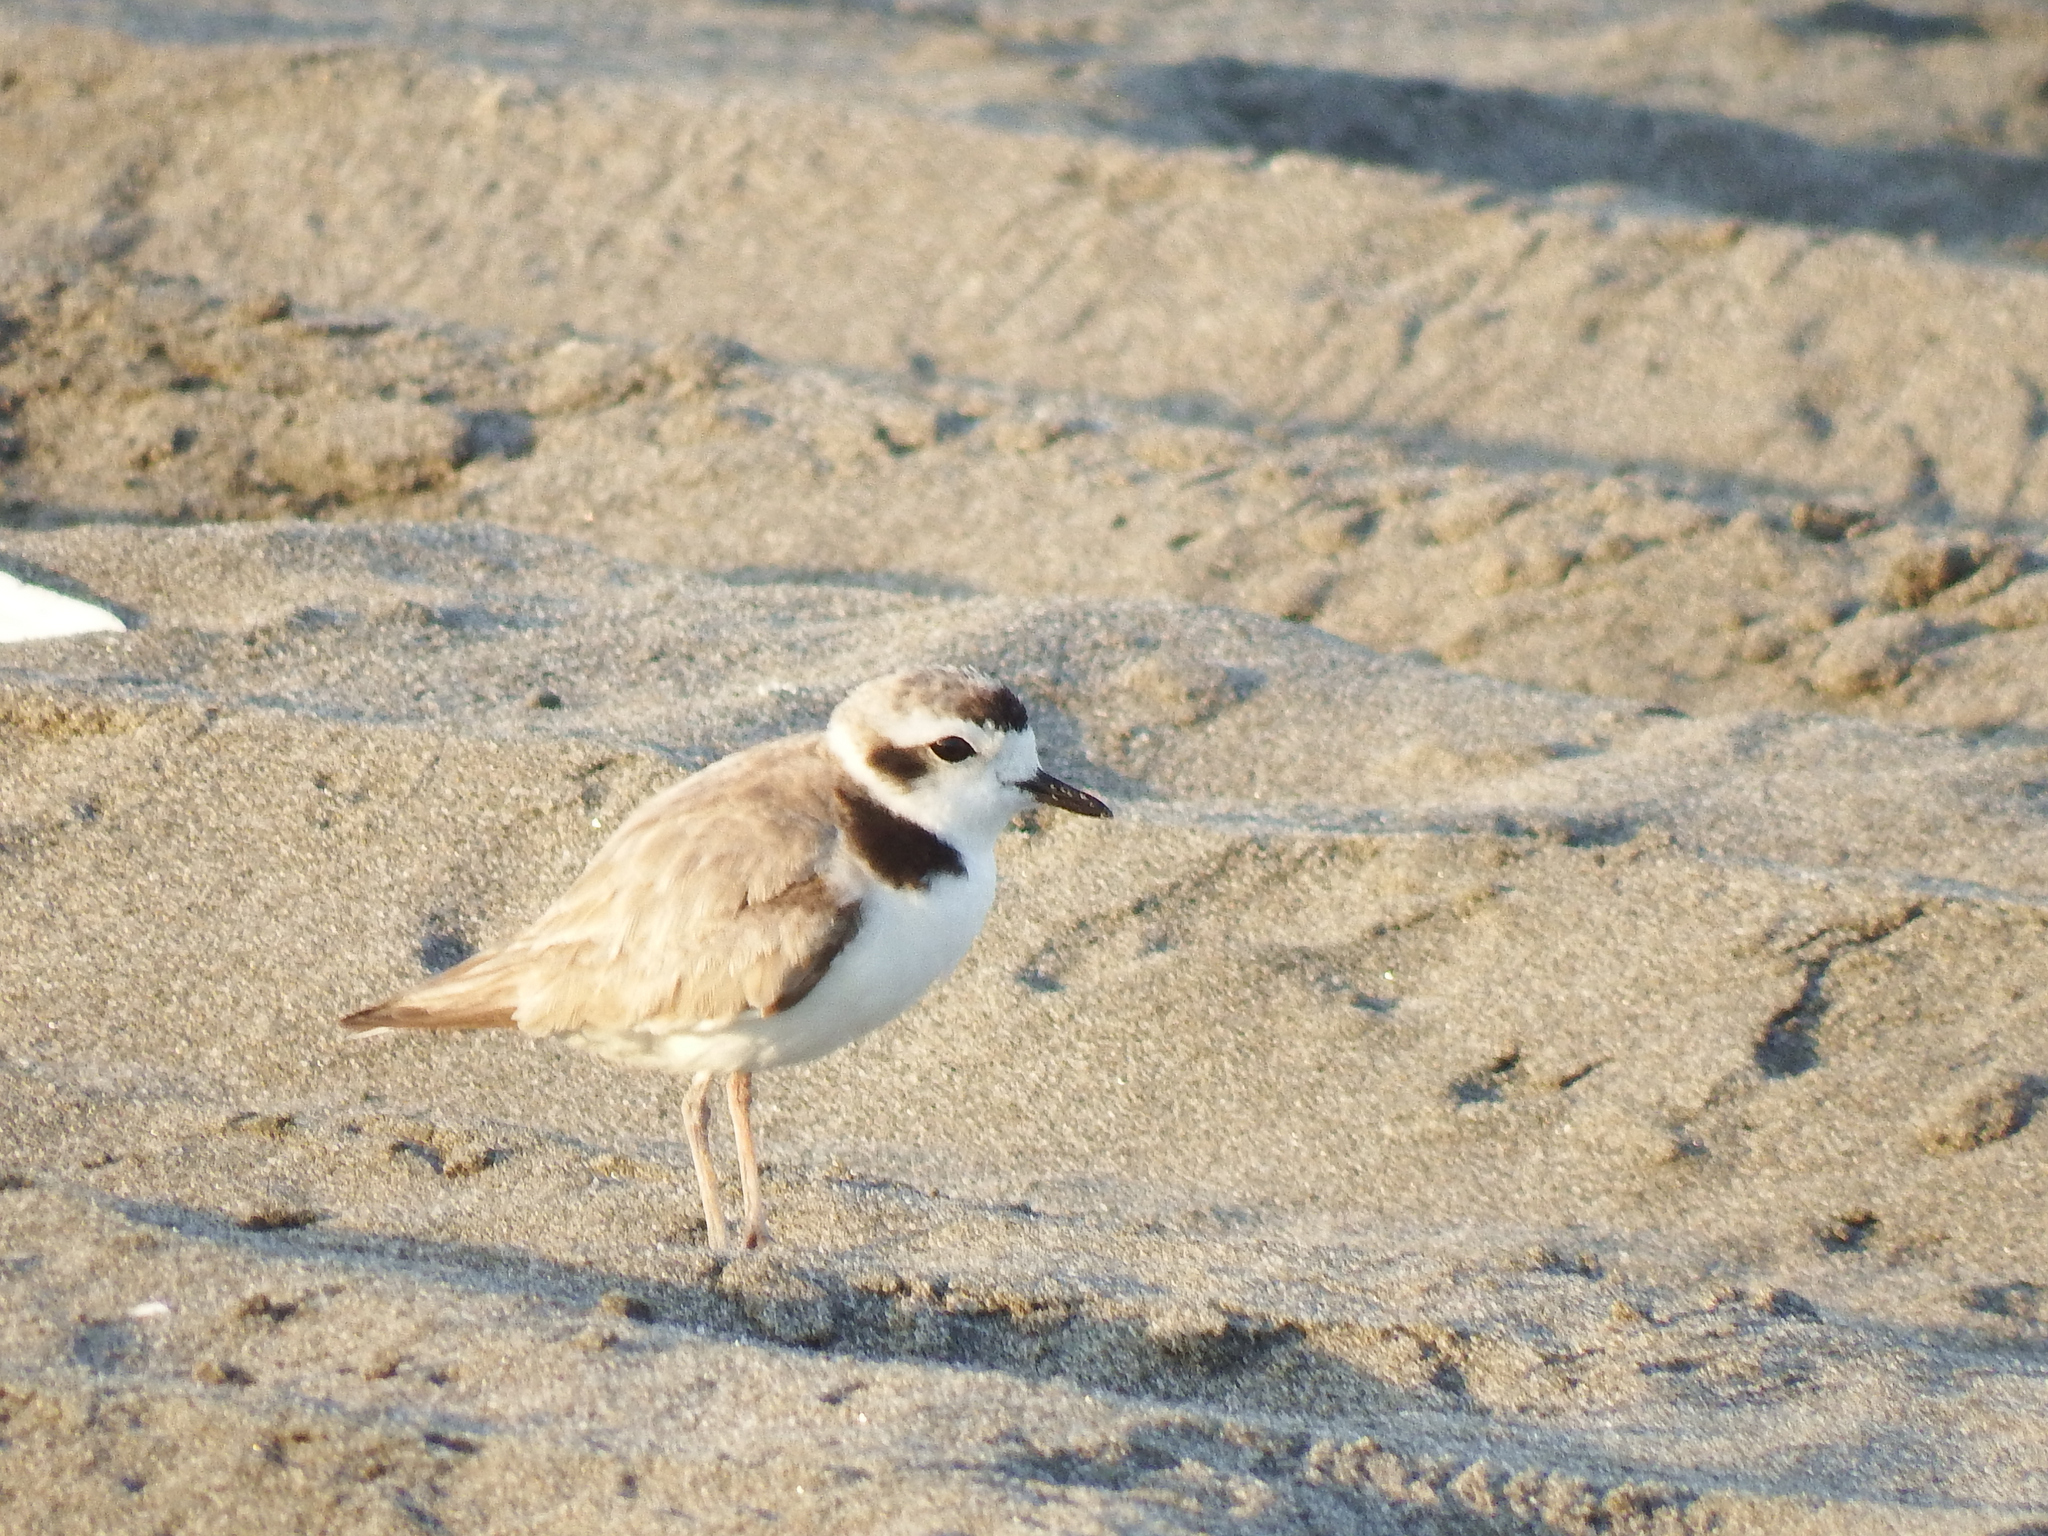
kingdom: Animalia
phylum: Chordata
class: Aves
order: Charadriiformes
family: Charadriidae
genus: Anarhynchus
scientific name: Anarhynchus
